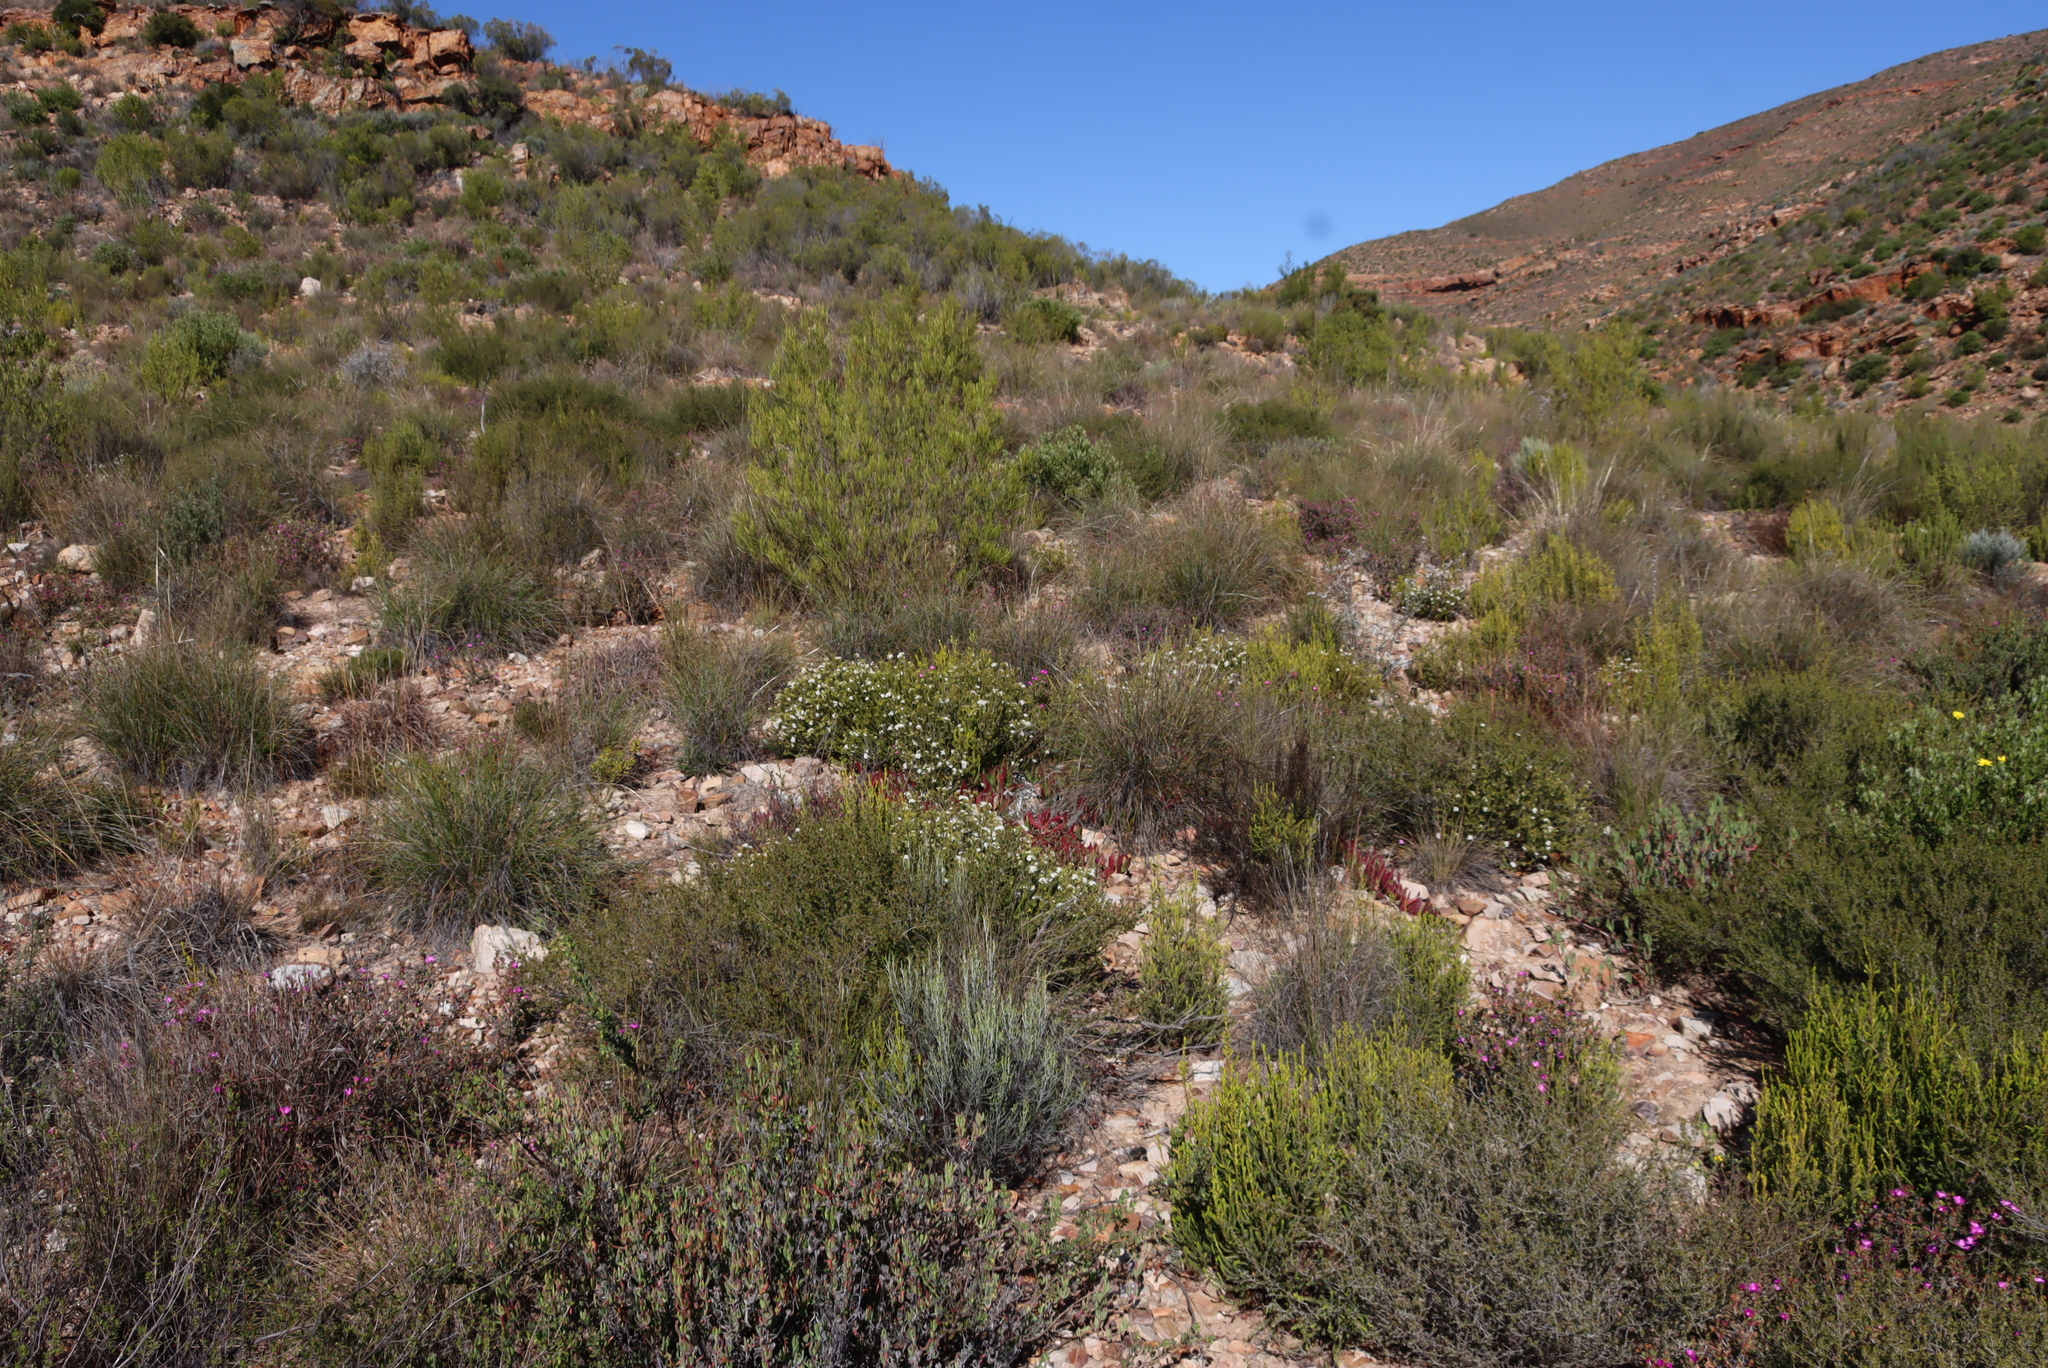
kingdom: Plantae
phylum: Tracheophyta
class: Magnoliopsida
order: Sapindales
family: Rutaceae
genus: Agathosma
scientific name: Agathosma recurvifolia
